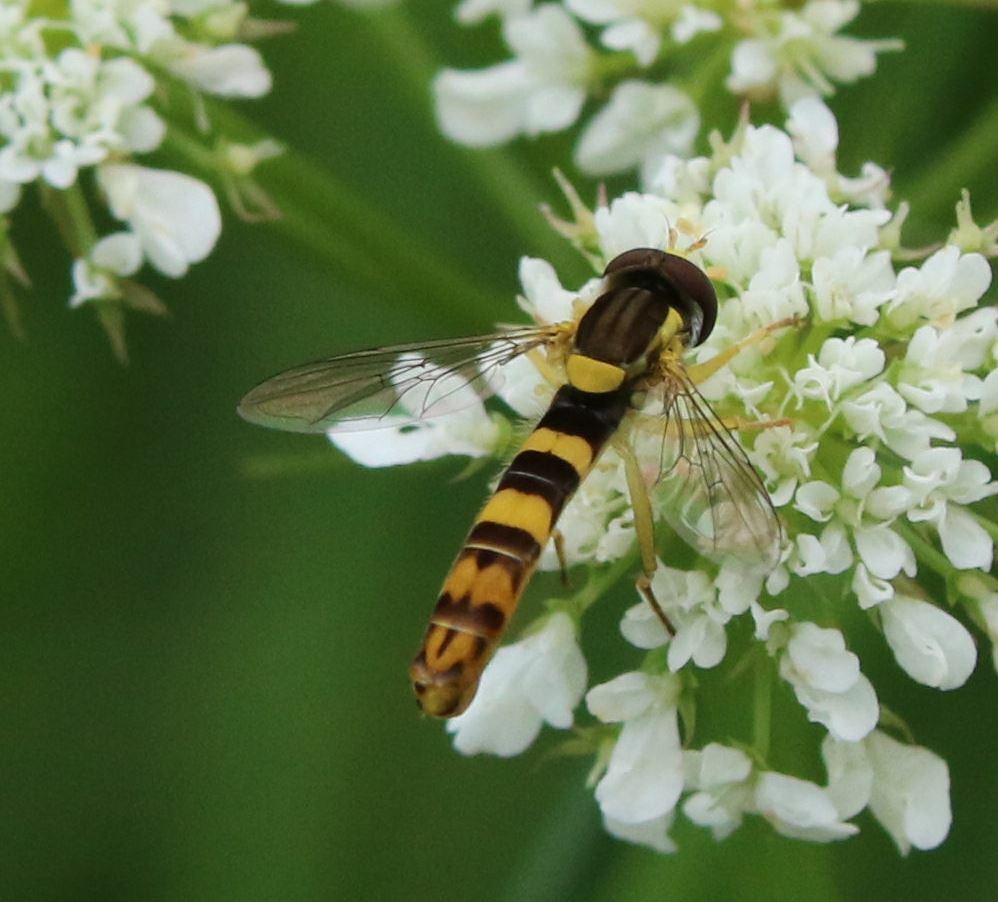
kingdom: Animalia
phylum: Arthropoda
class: Insecta
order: Diptera
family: Syrphidae
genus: Sphaerophoria
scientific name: Sphaerophoria scripta
